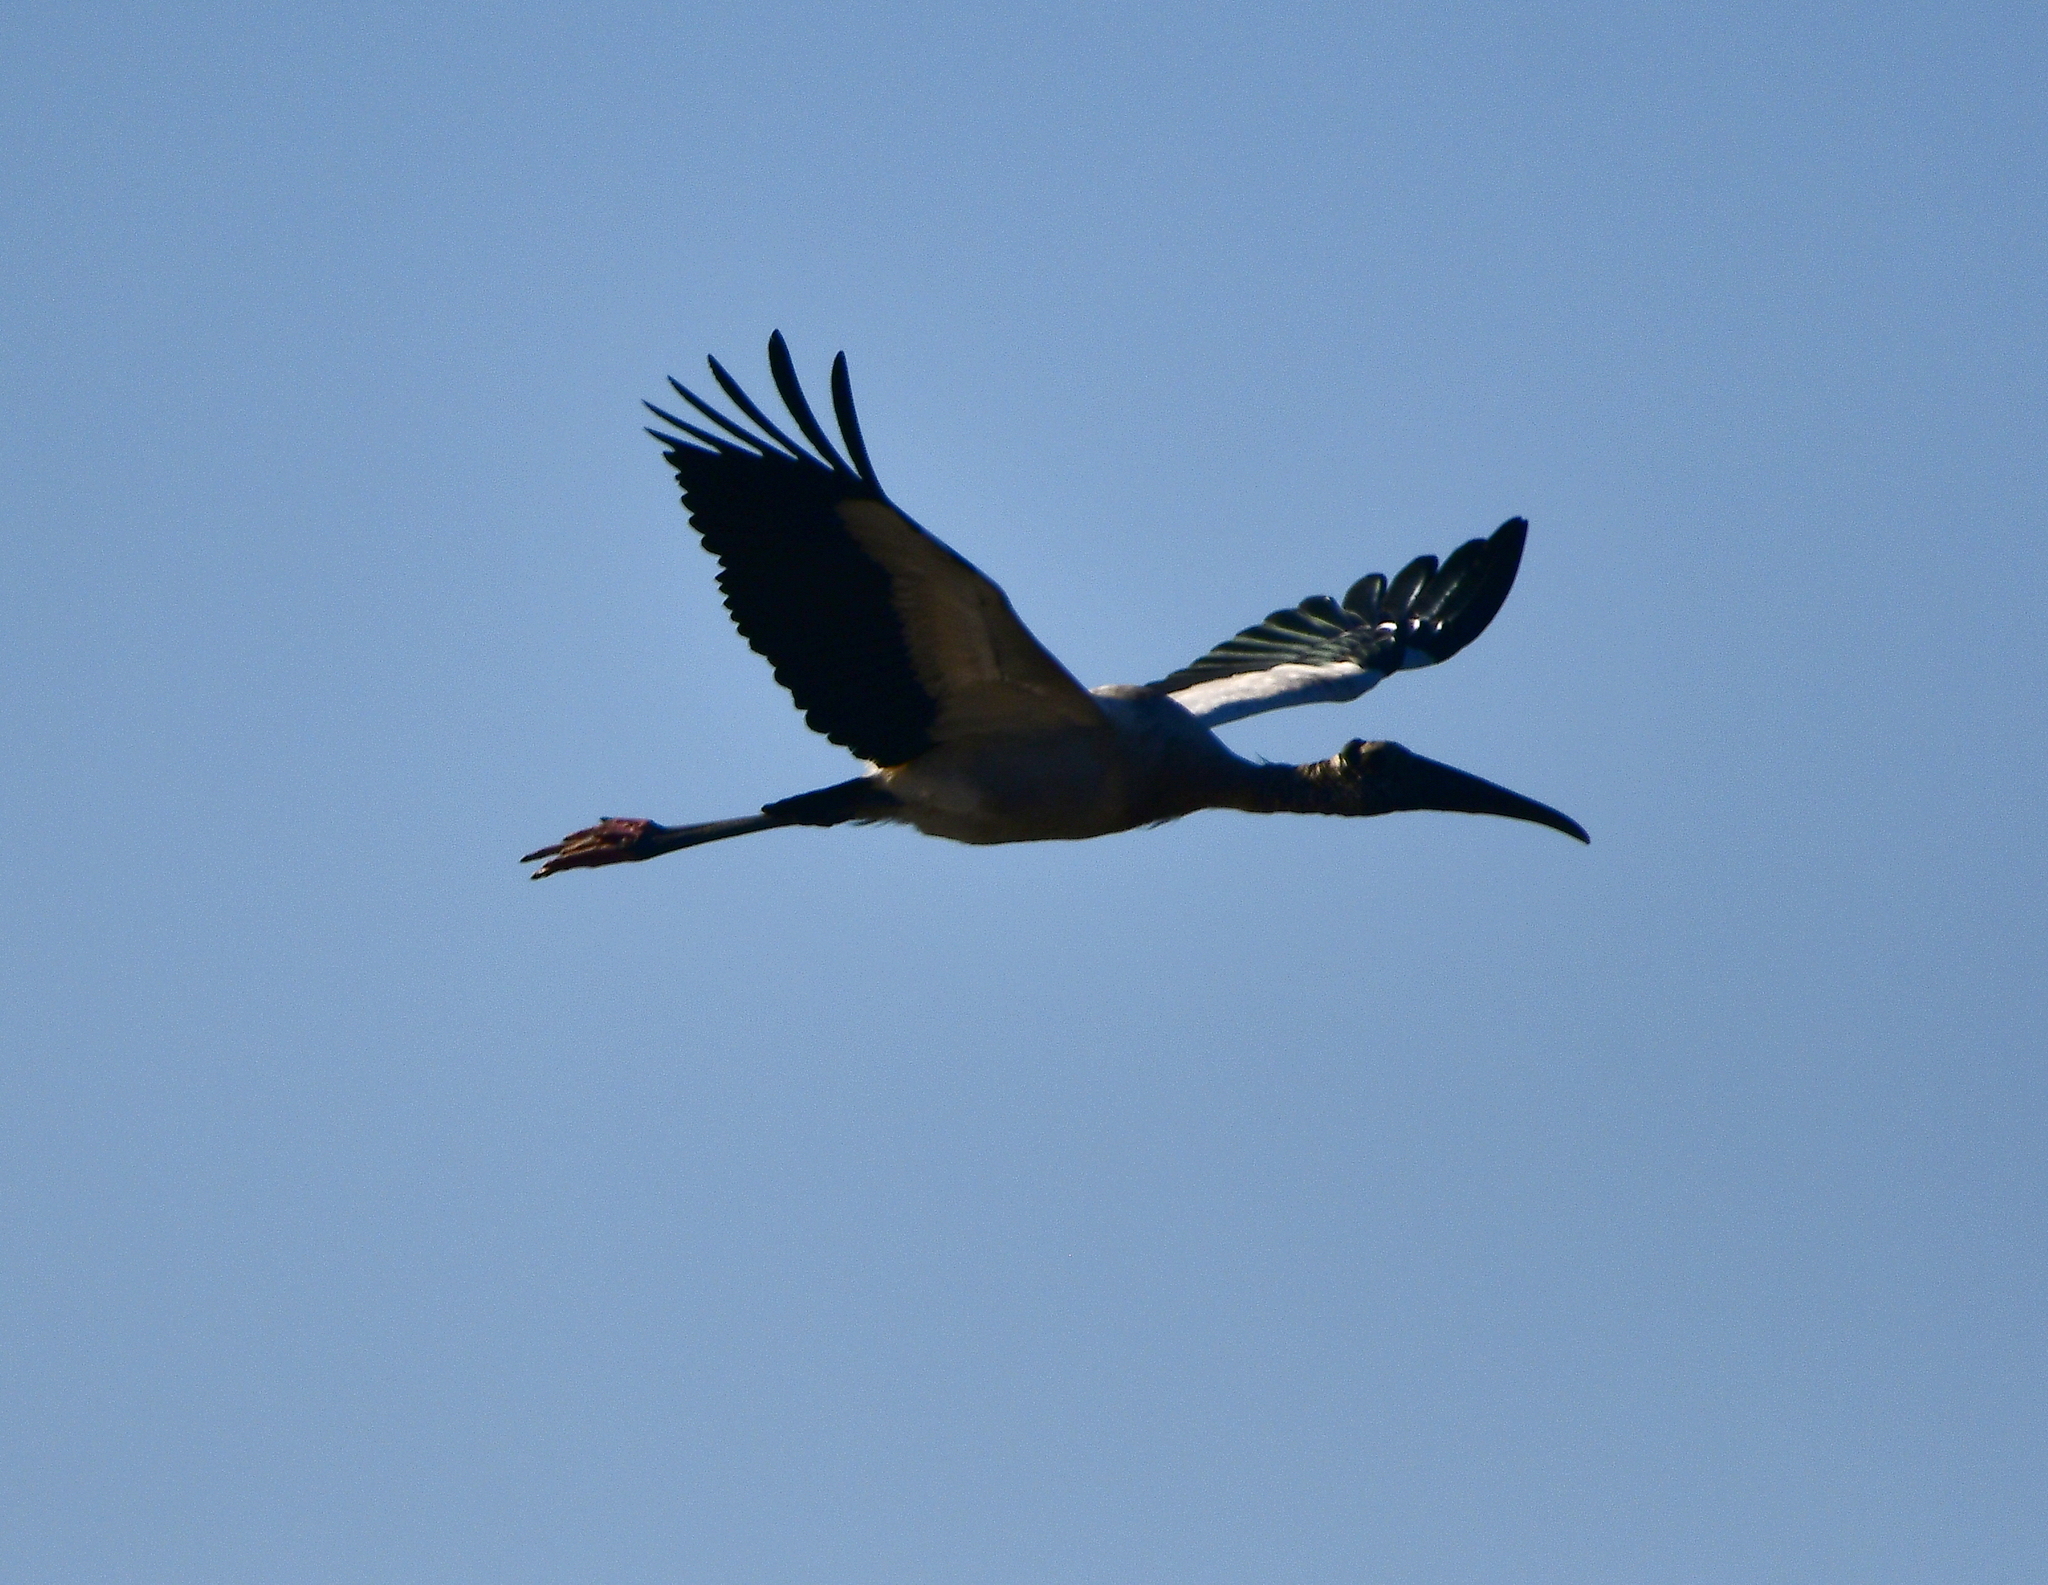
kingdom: Animalia
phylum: Chordata
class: Aves
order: Ciconiiformes
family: Ciconiidae
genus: Mycteria
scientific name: Mycteria americana
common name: Wood stork
